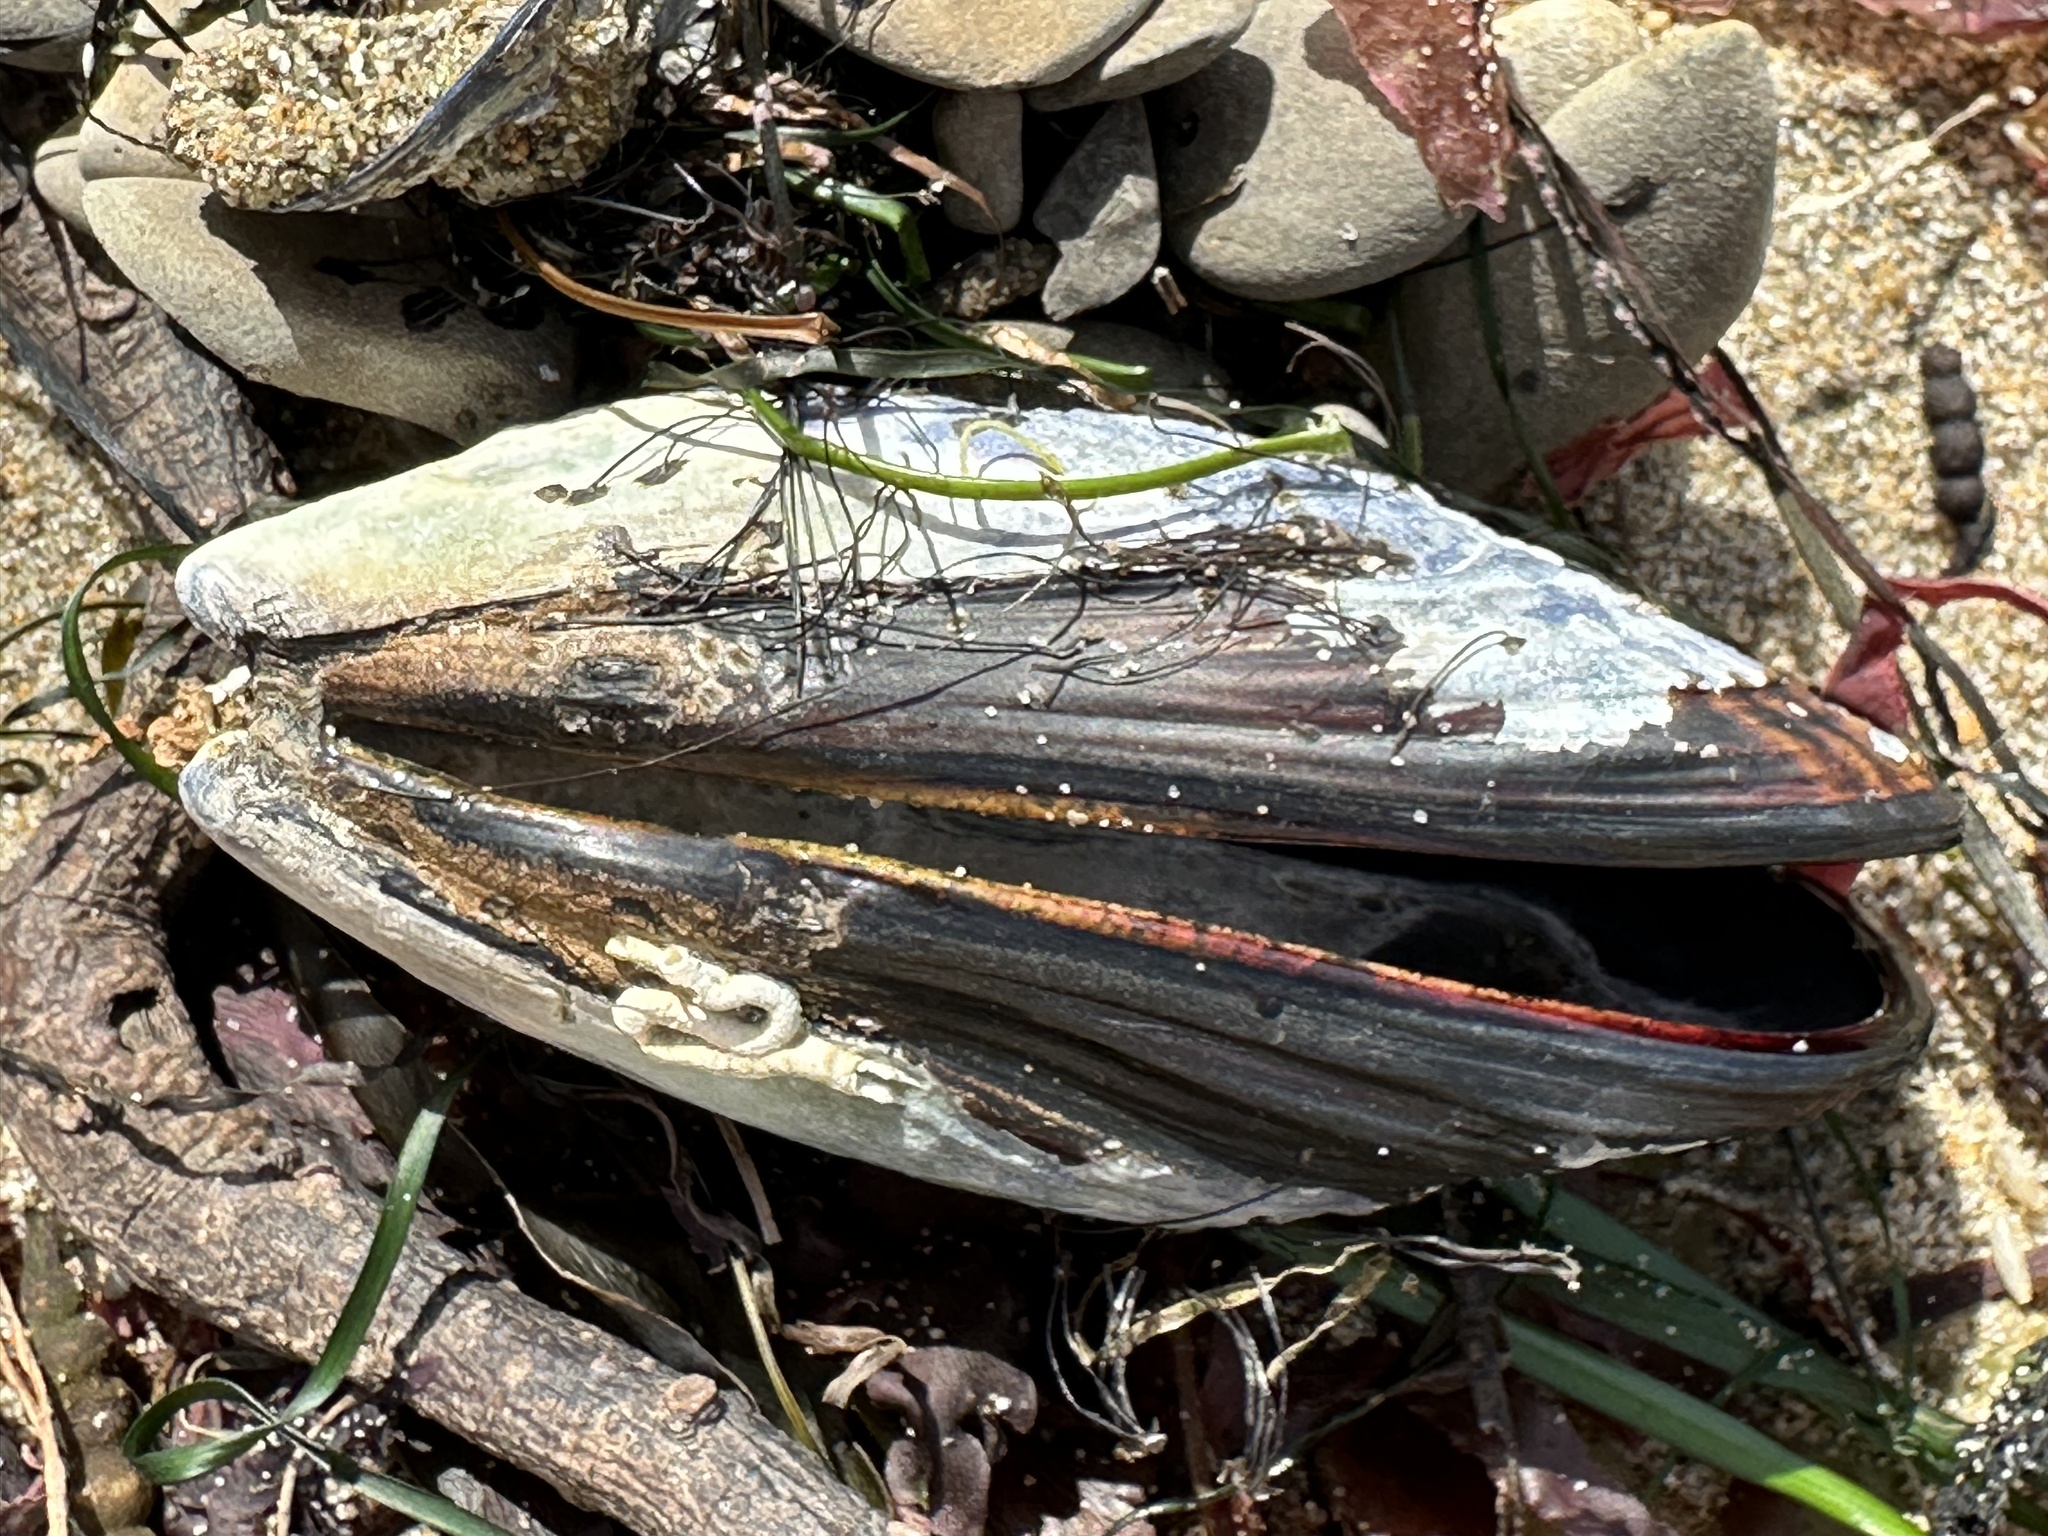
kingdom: Animalia
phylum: Mollusca
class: Bivalvia
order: Mytilida
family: Mytilidae
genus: Mytilus
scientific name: Mytilus californianus
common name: California mussel
